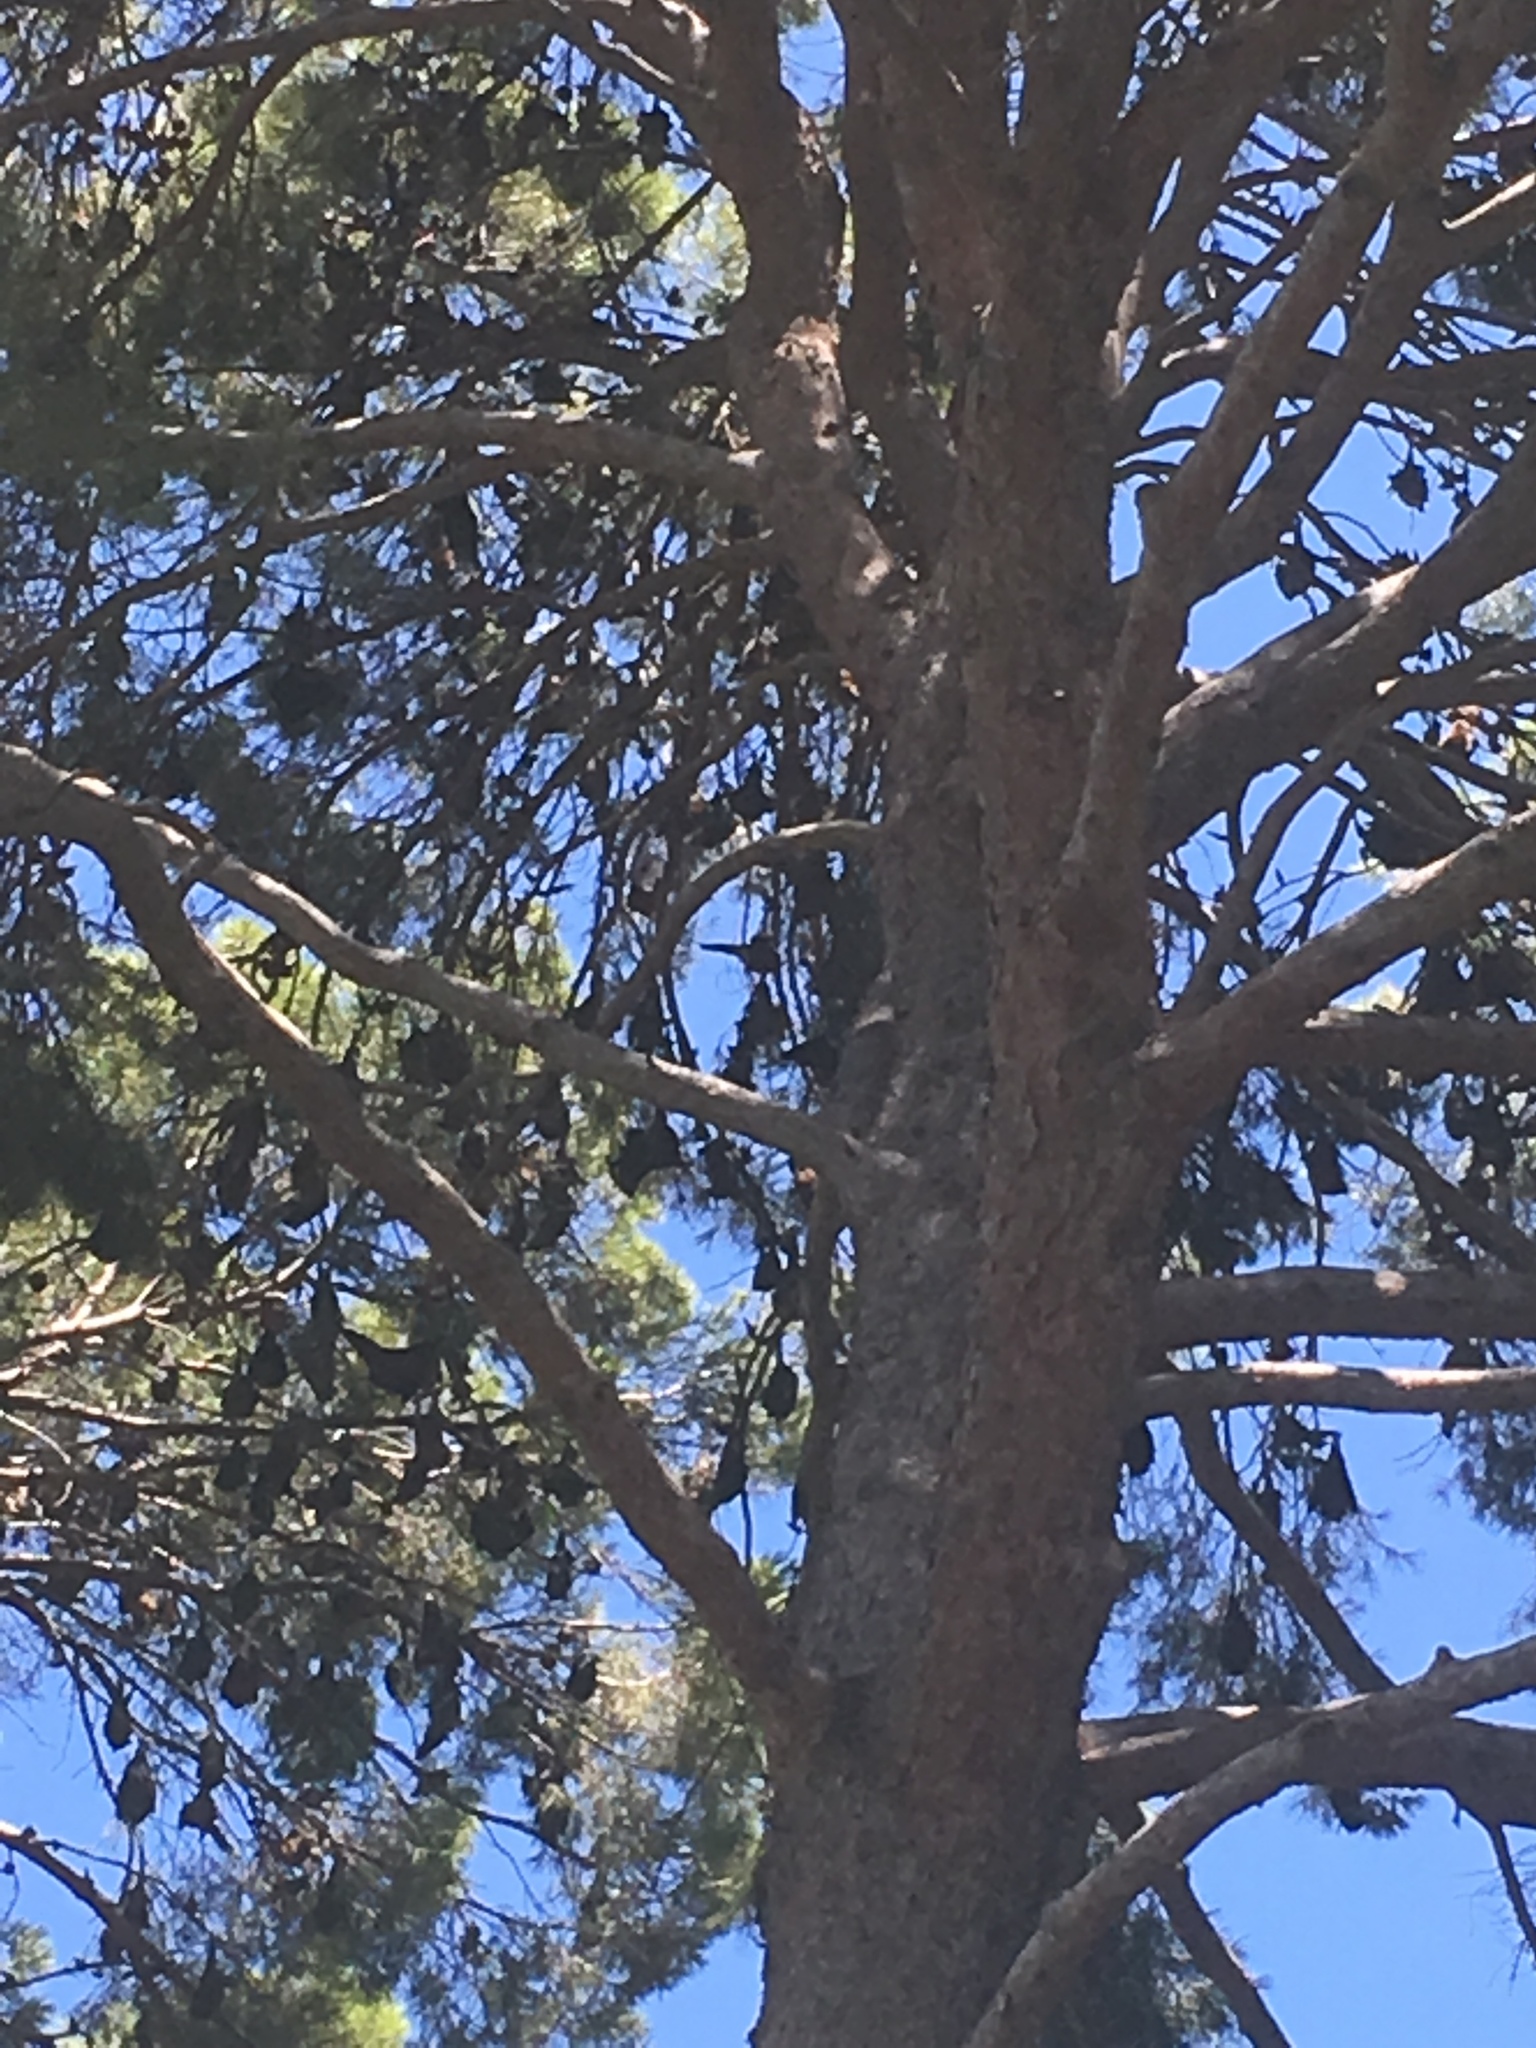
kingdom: Animalia
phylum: Chordata
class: Mammalia
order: Chiroptera
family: Pteropodidae
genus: Pteropus
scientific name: Pteropus poliocephalus
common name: Gray-headed flying fox
